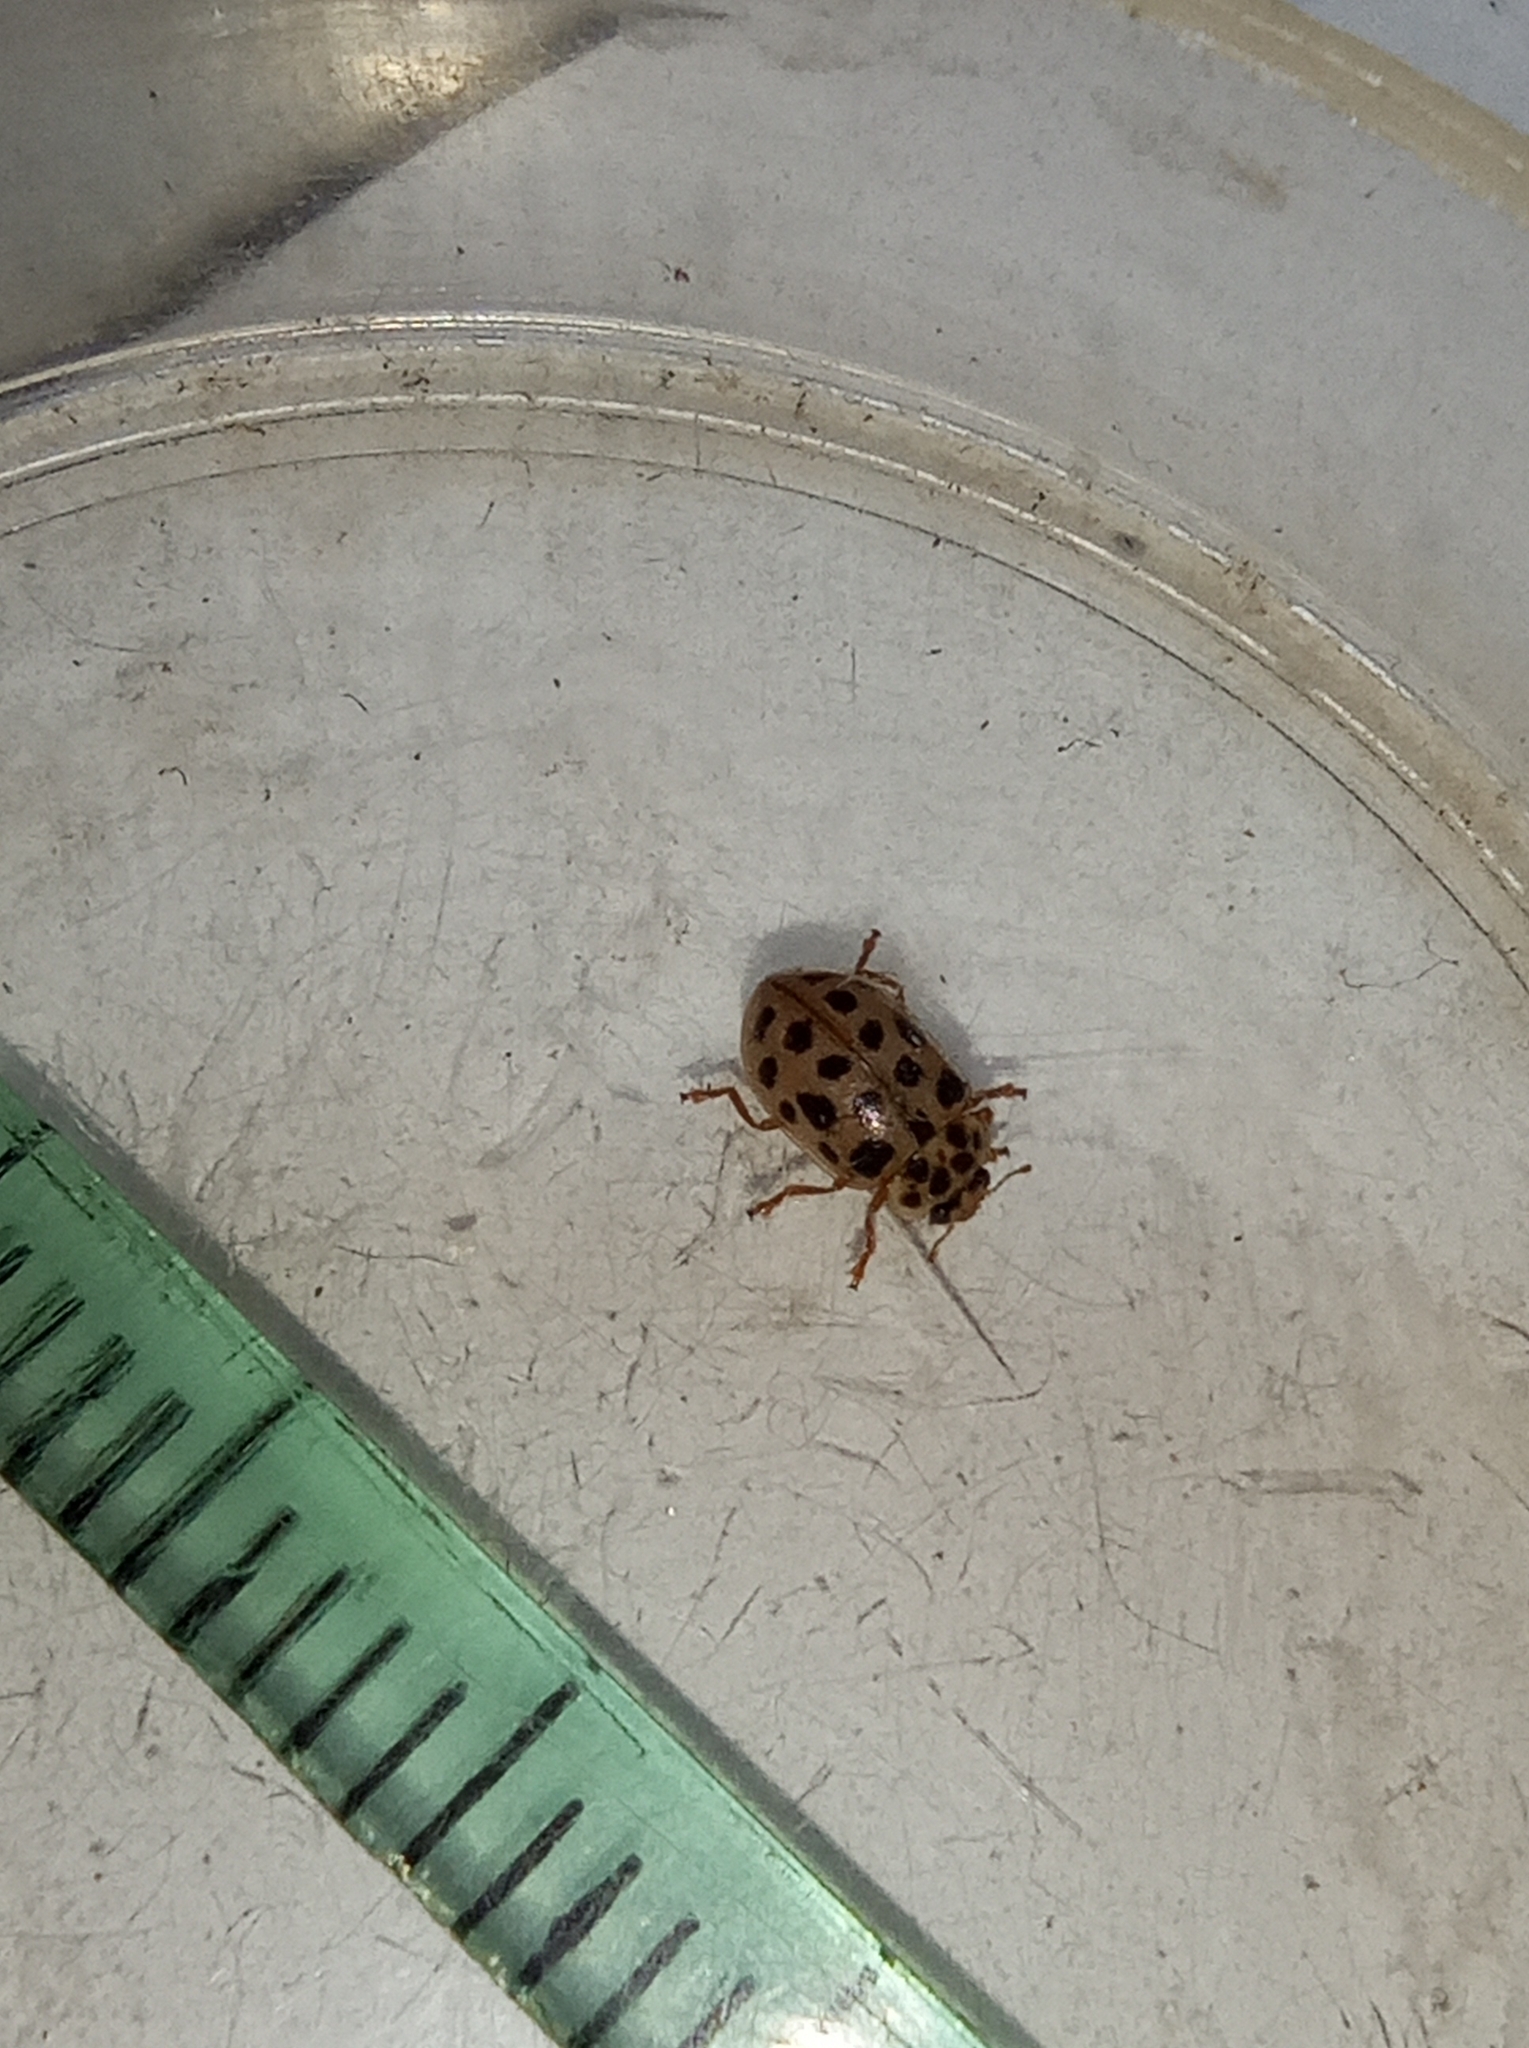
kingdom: Animalia
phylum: Arthropoda
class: Insecta
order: Coleoptera
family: Coccinellidae
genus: Anisosticta
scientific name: Anisosticta novemdecimpunctata
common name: Water ladybird
